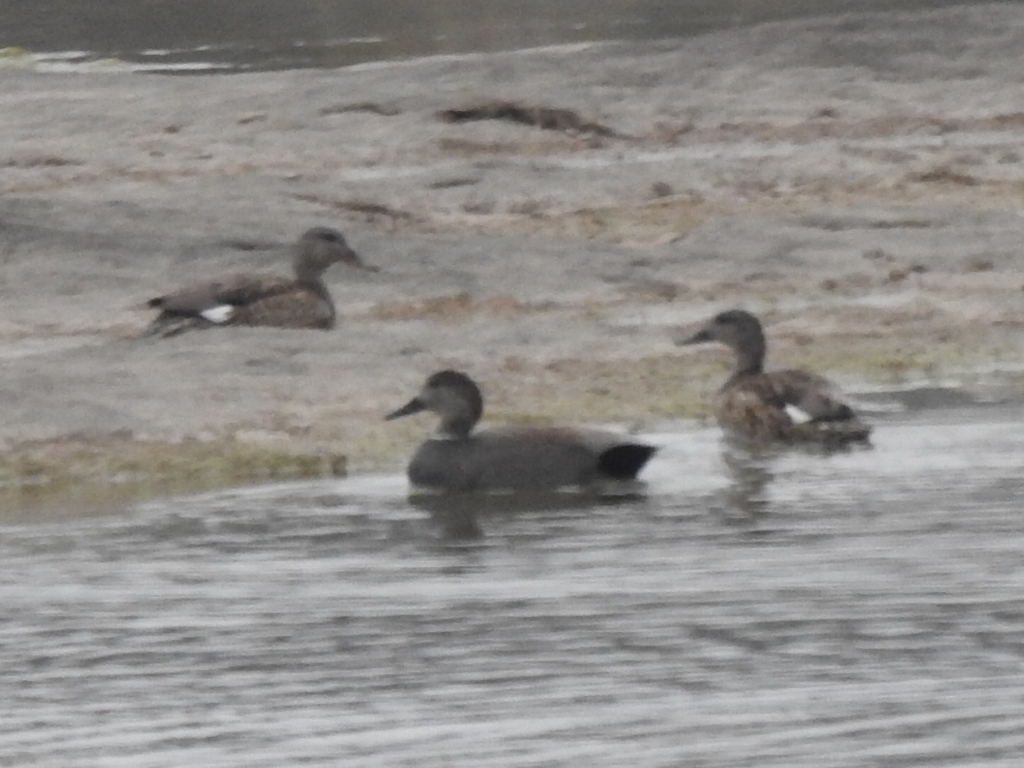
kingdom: Animalia
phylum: Chordata
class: Aves
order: Anseriformes
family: Anatidae
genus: Mareca
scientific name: Mareca strepera
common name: Gadwall
